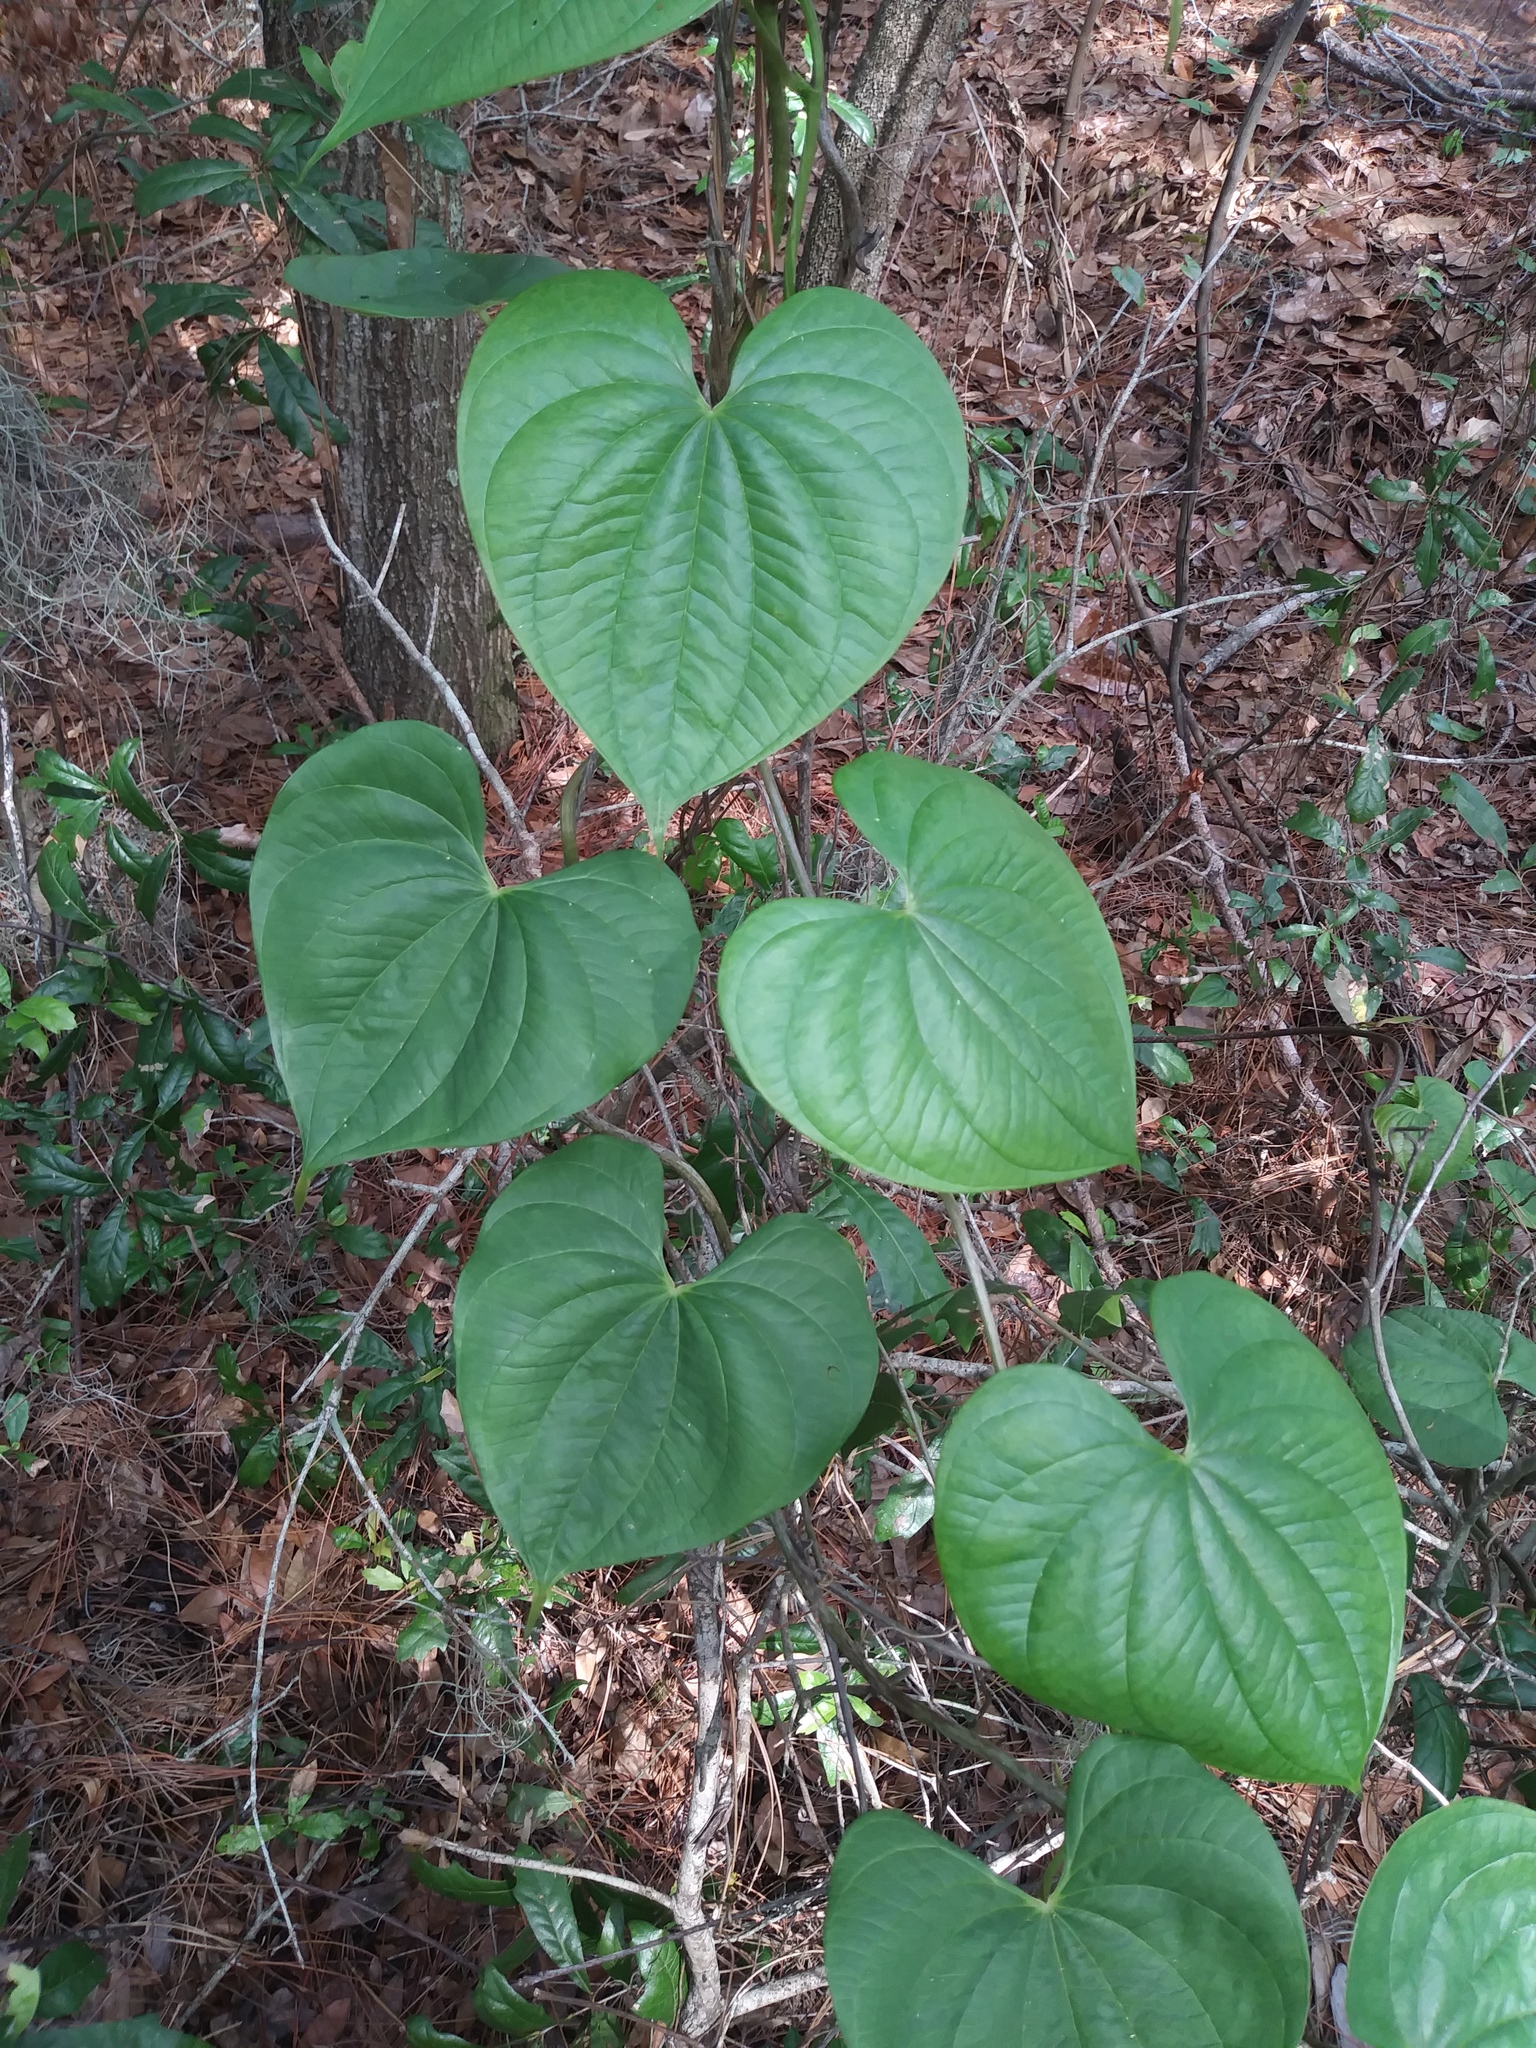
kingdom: Plantae
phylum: Tracheophyta
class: Liliopsida
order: Dioscoreales
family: Dioscoreaceae
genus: Dioscorea
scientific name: Dioscorea bulbifera
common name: Air yam
